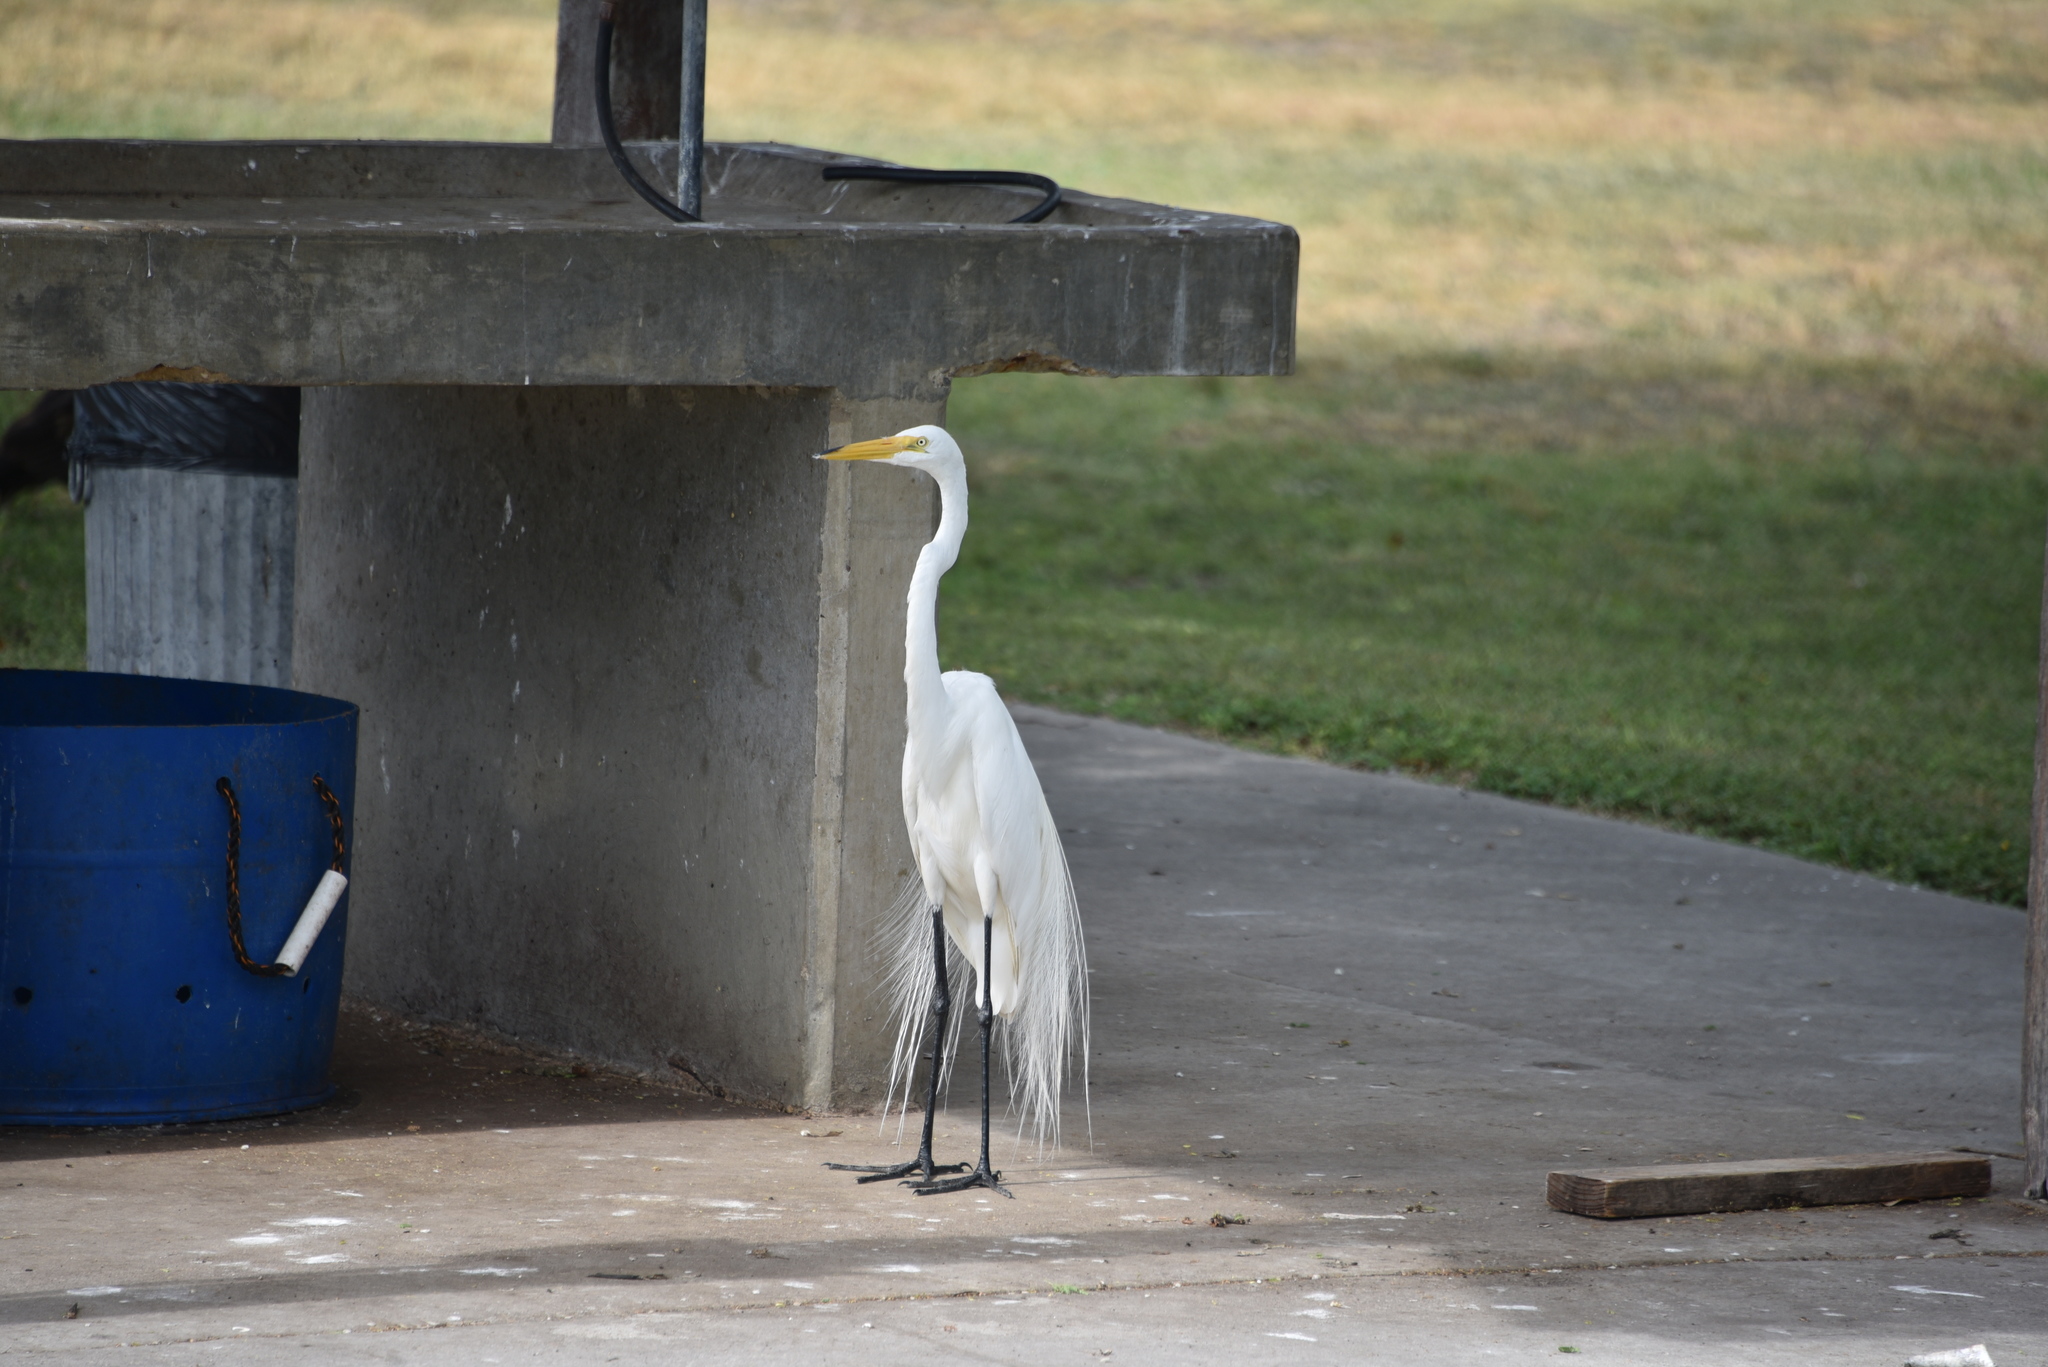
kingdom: Animalia
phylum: Chordata
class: Aves
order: Pelecaniformes
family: Ardeidae
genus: Ardea
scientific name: Ardea alba
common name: Great egret
